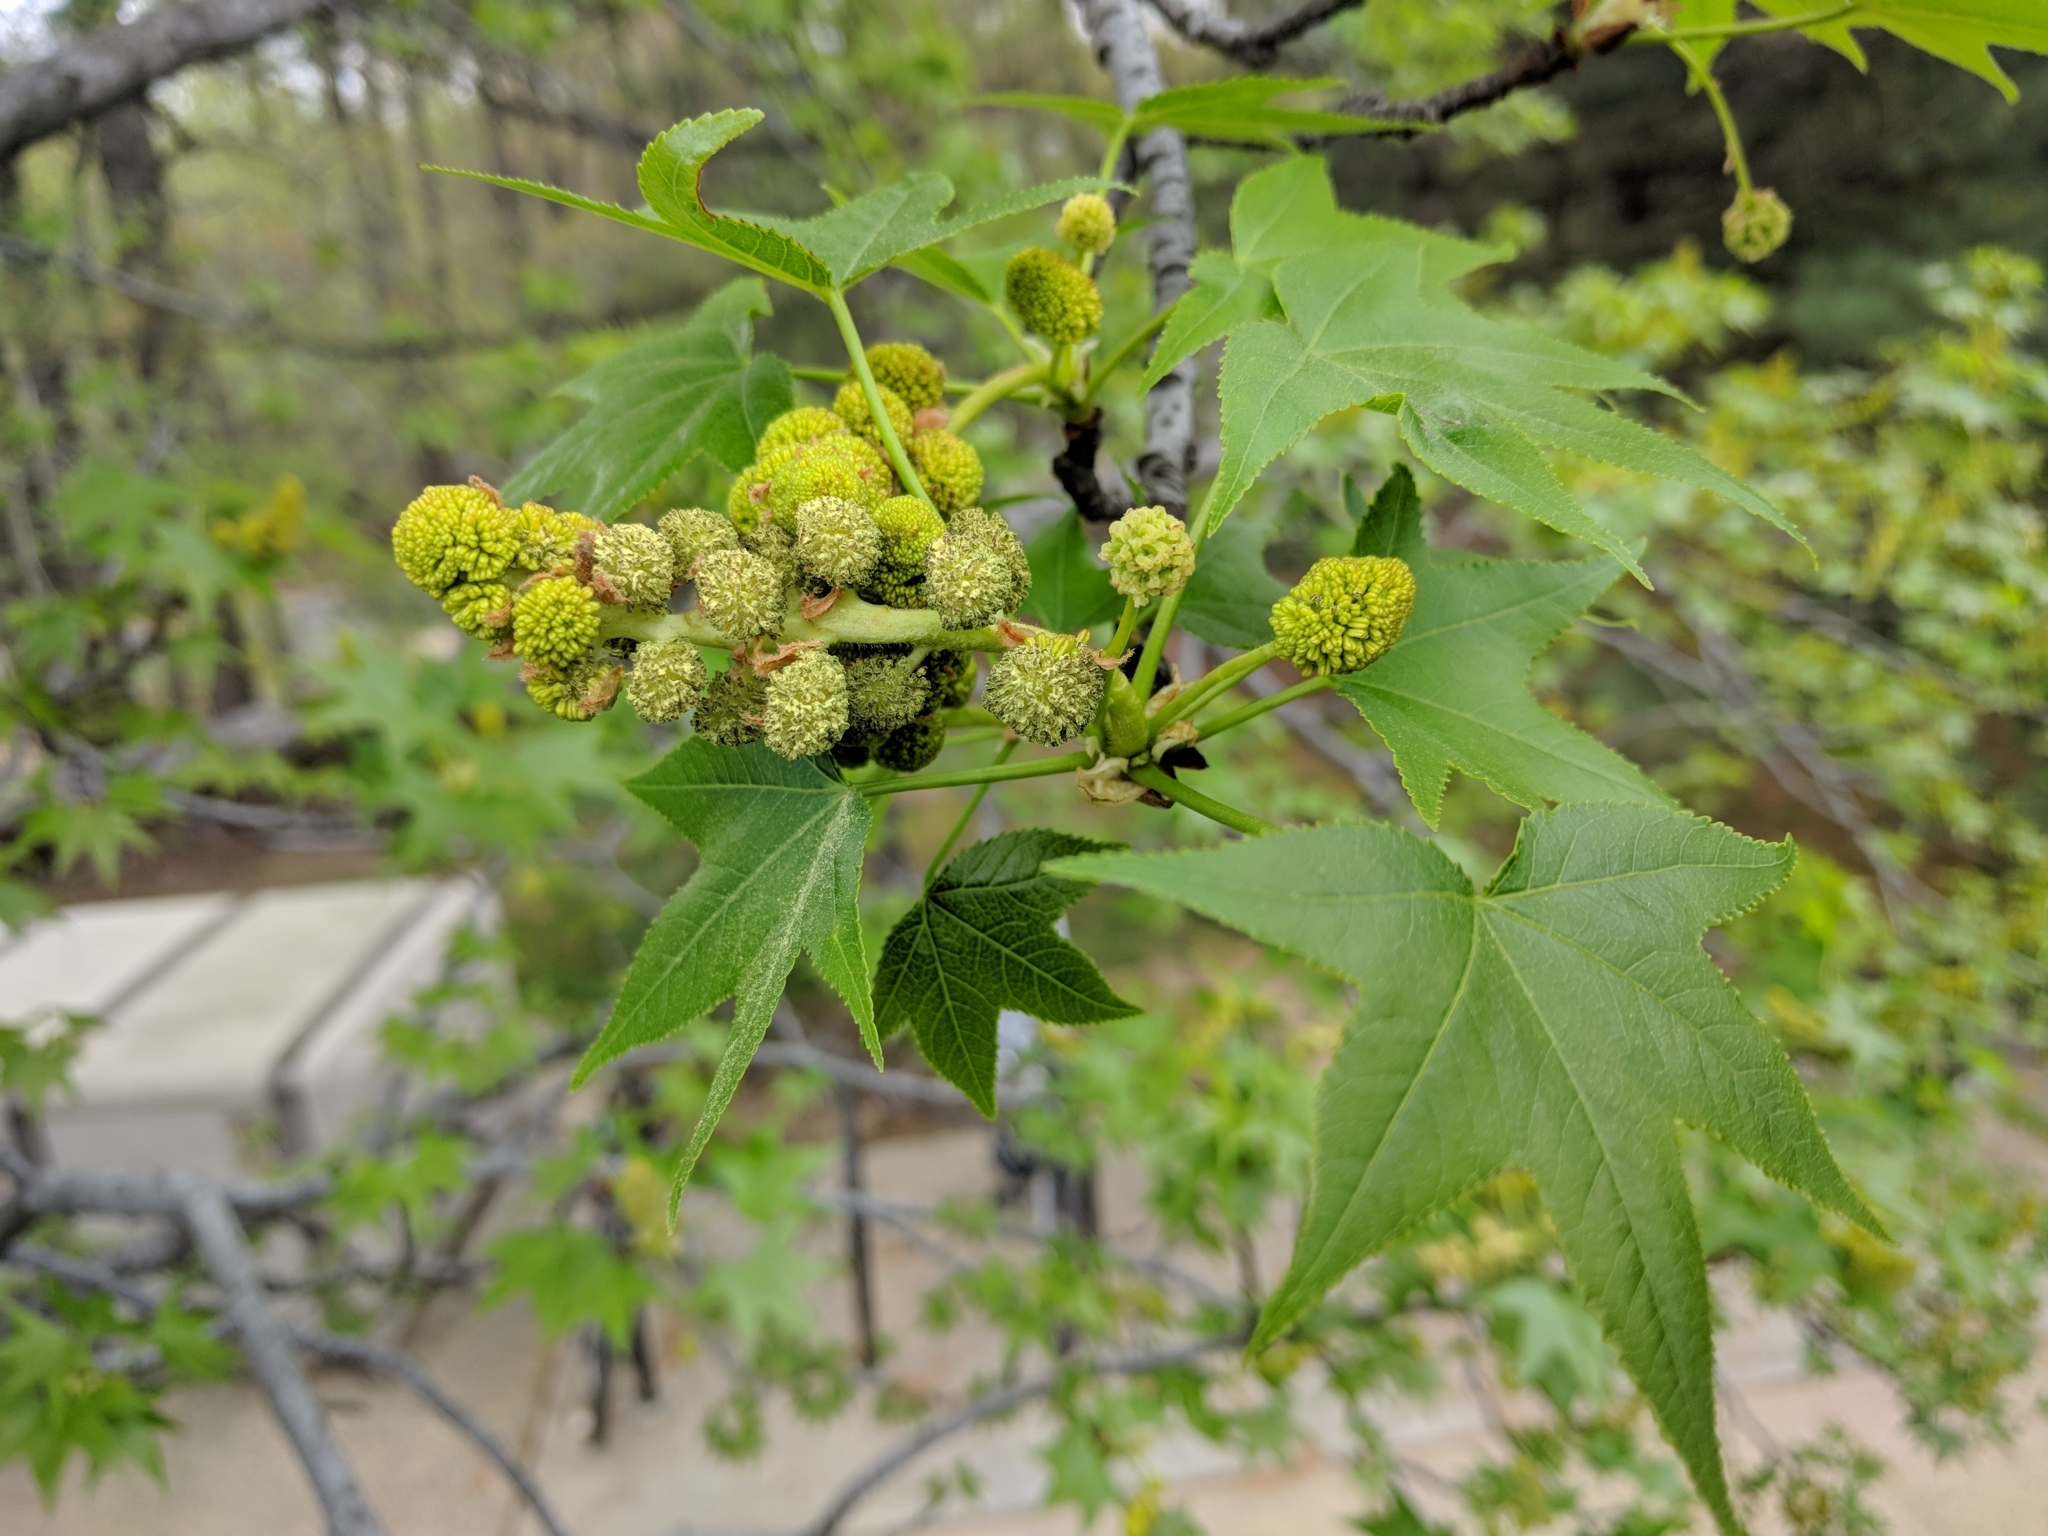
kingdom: Plantae
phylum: Tracheophyta
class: Magnoliopsida
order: Saxifragales
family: Altingiaceae
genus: Liquidambar
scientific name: Liquidambar styraciflua
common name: Sweet gum
